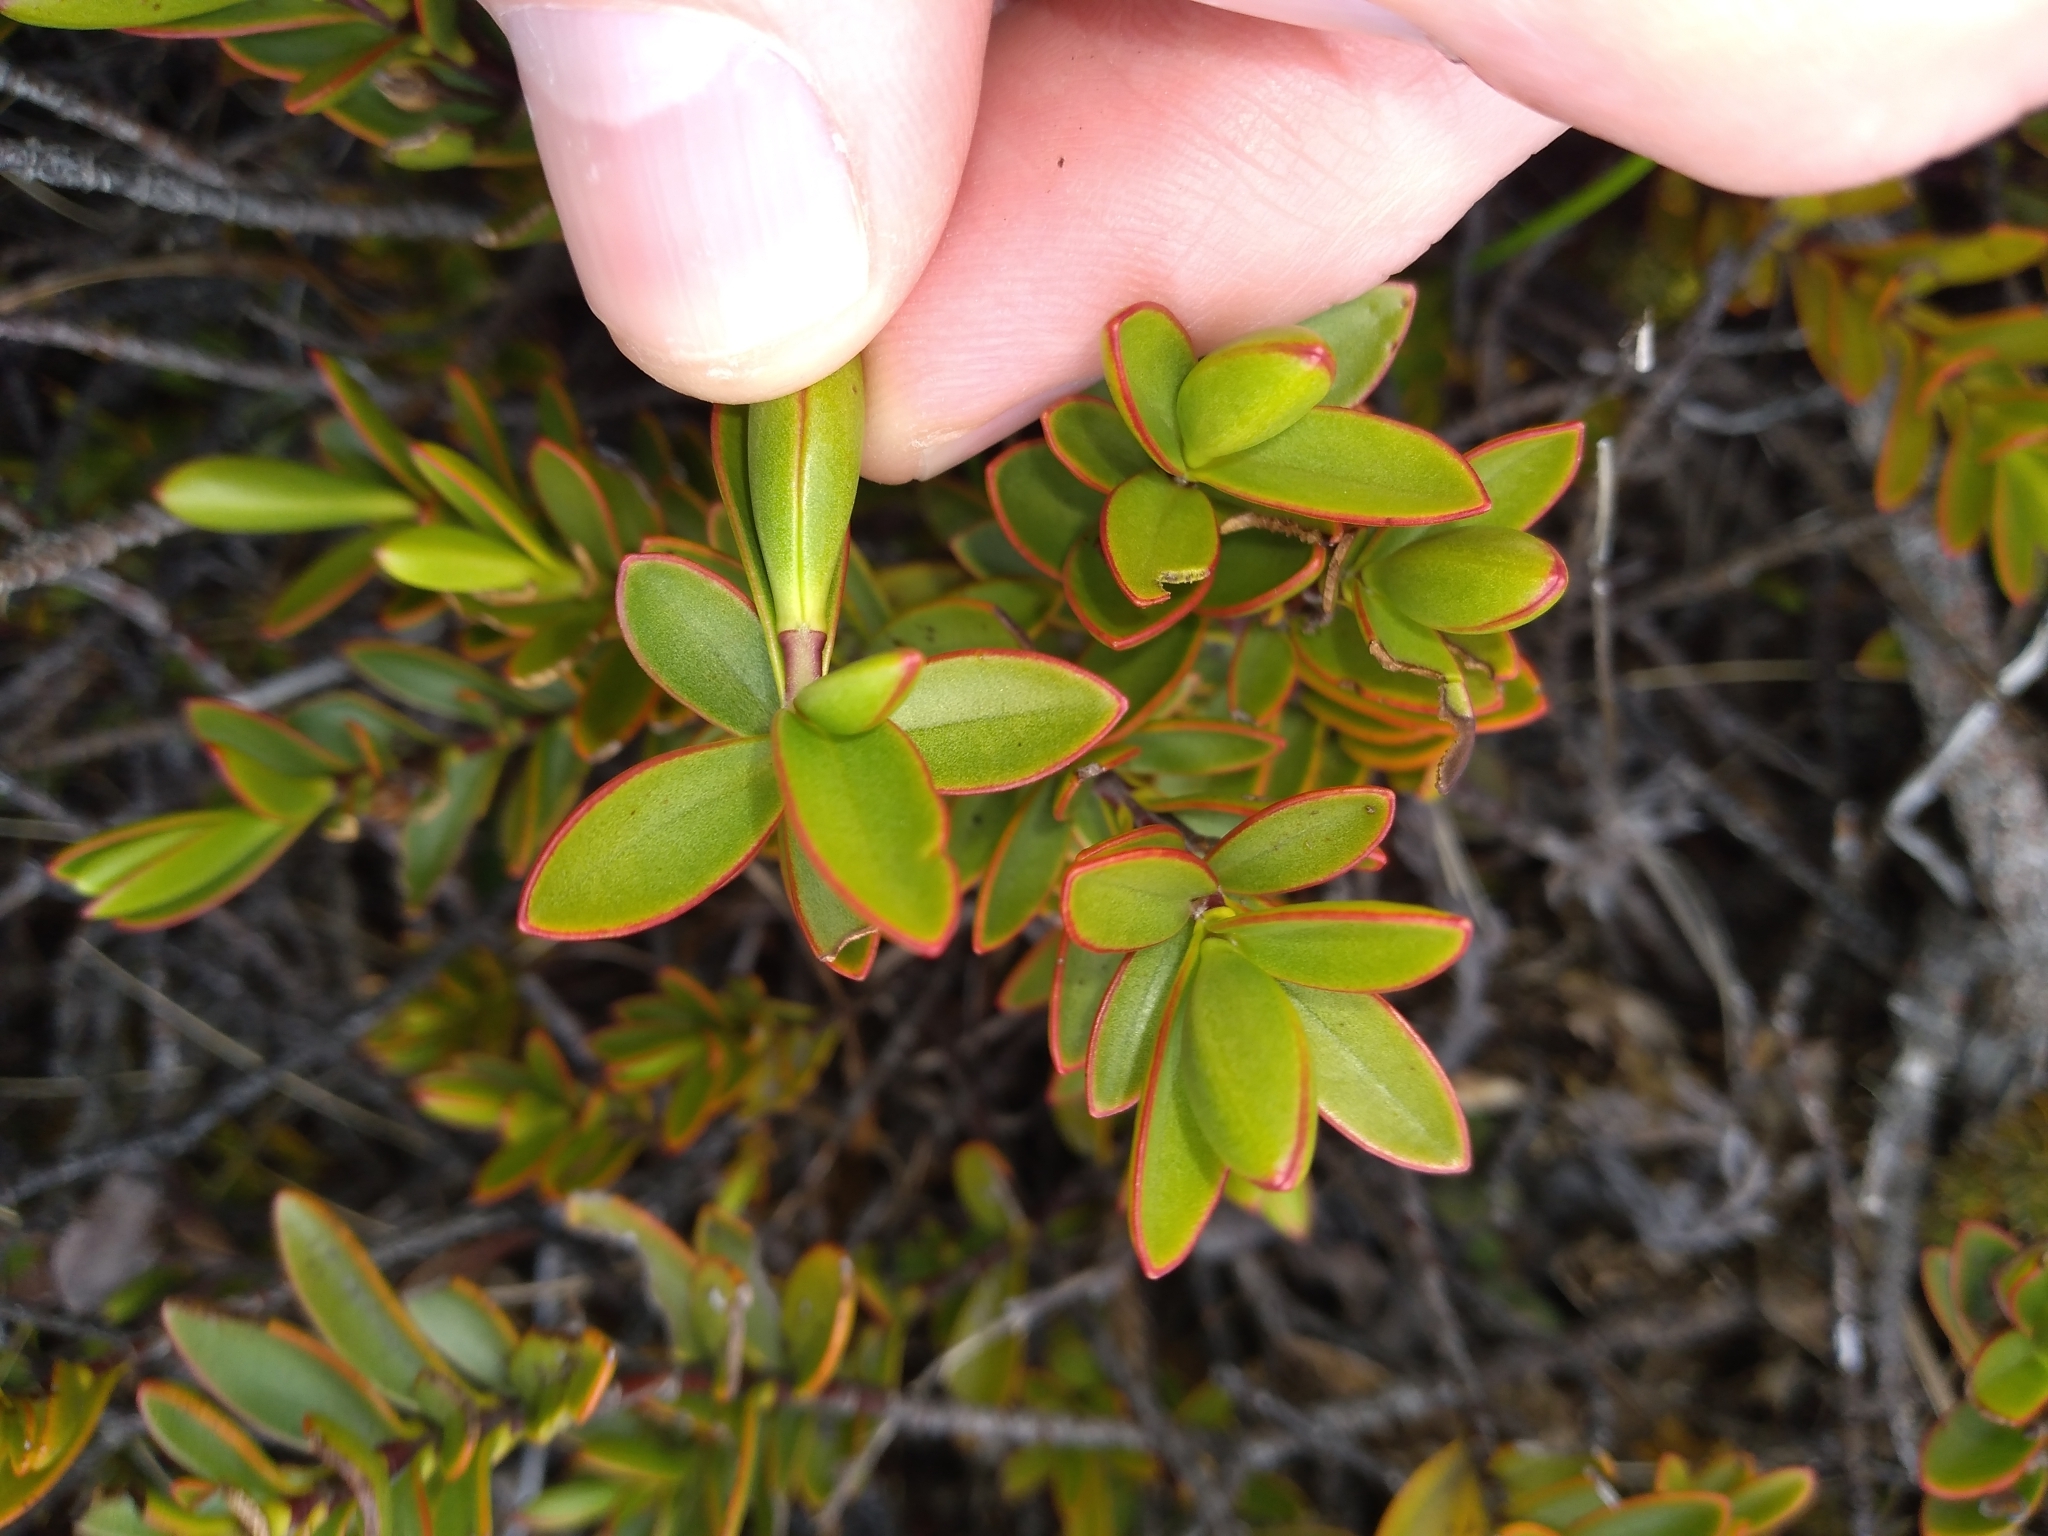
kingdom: Plantae
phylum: Tracheophyta
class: Magnoliopsida
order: Lamiales
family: Plantaginaceae
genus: Veronica
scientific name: Veronica decumbens
